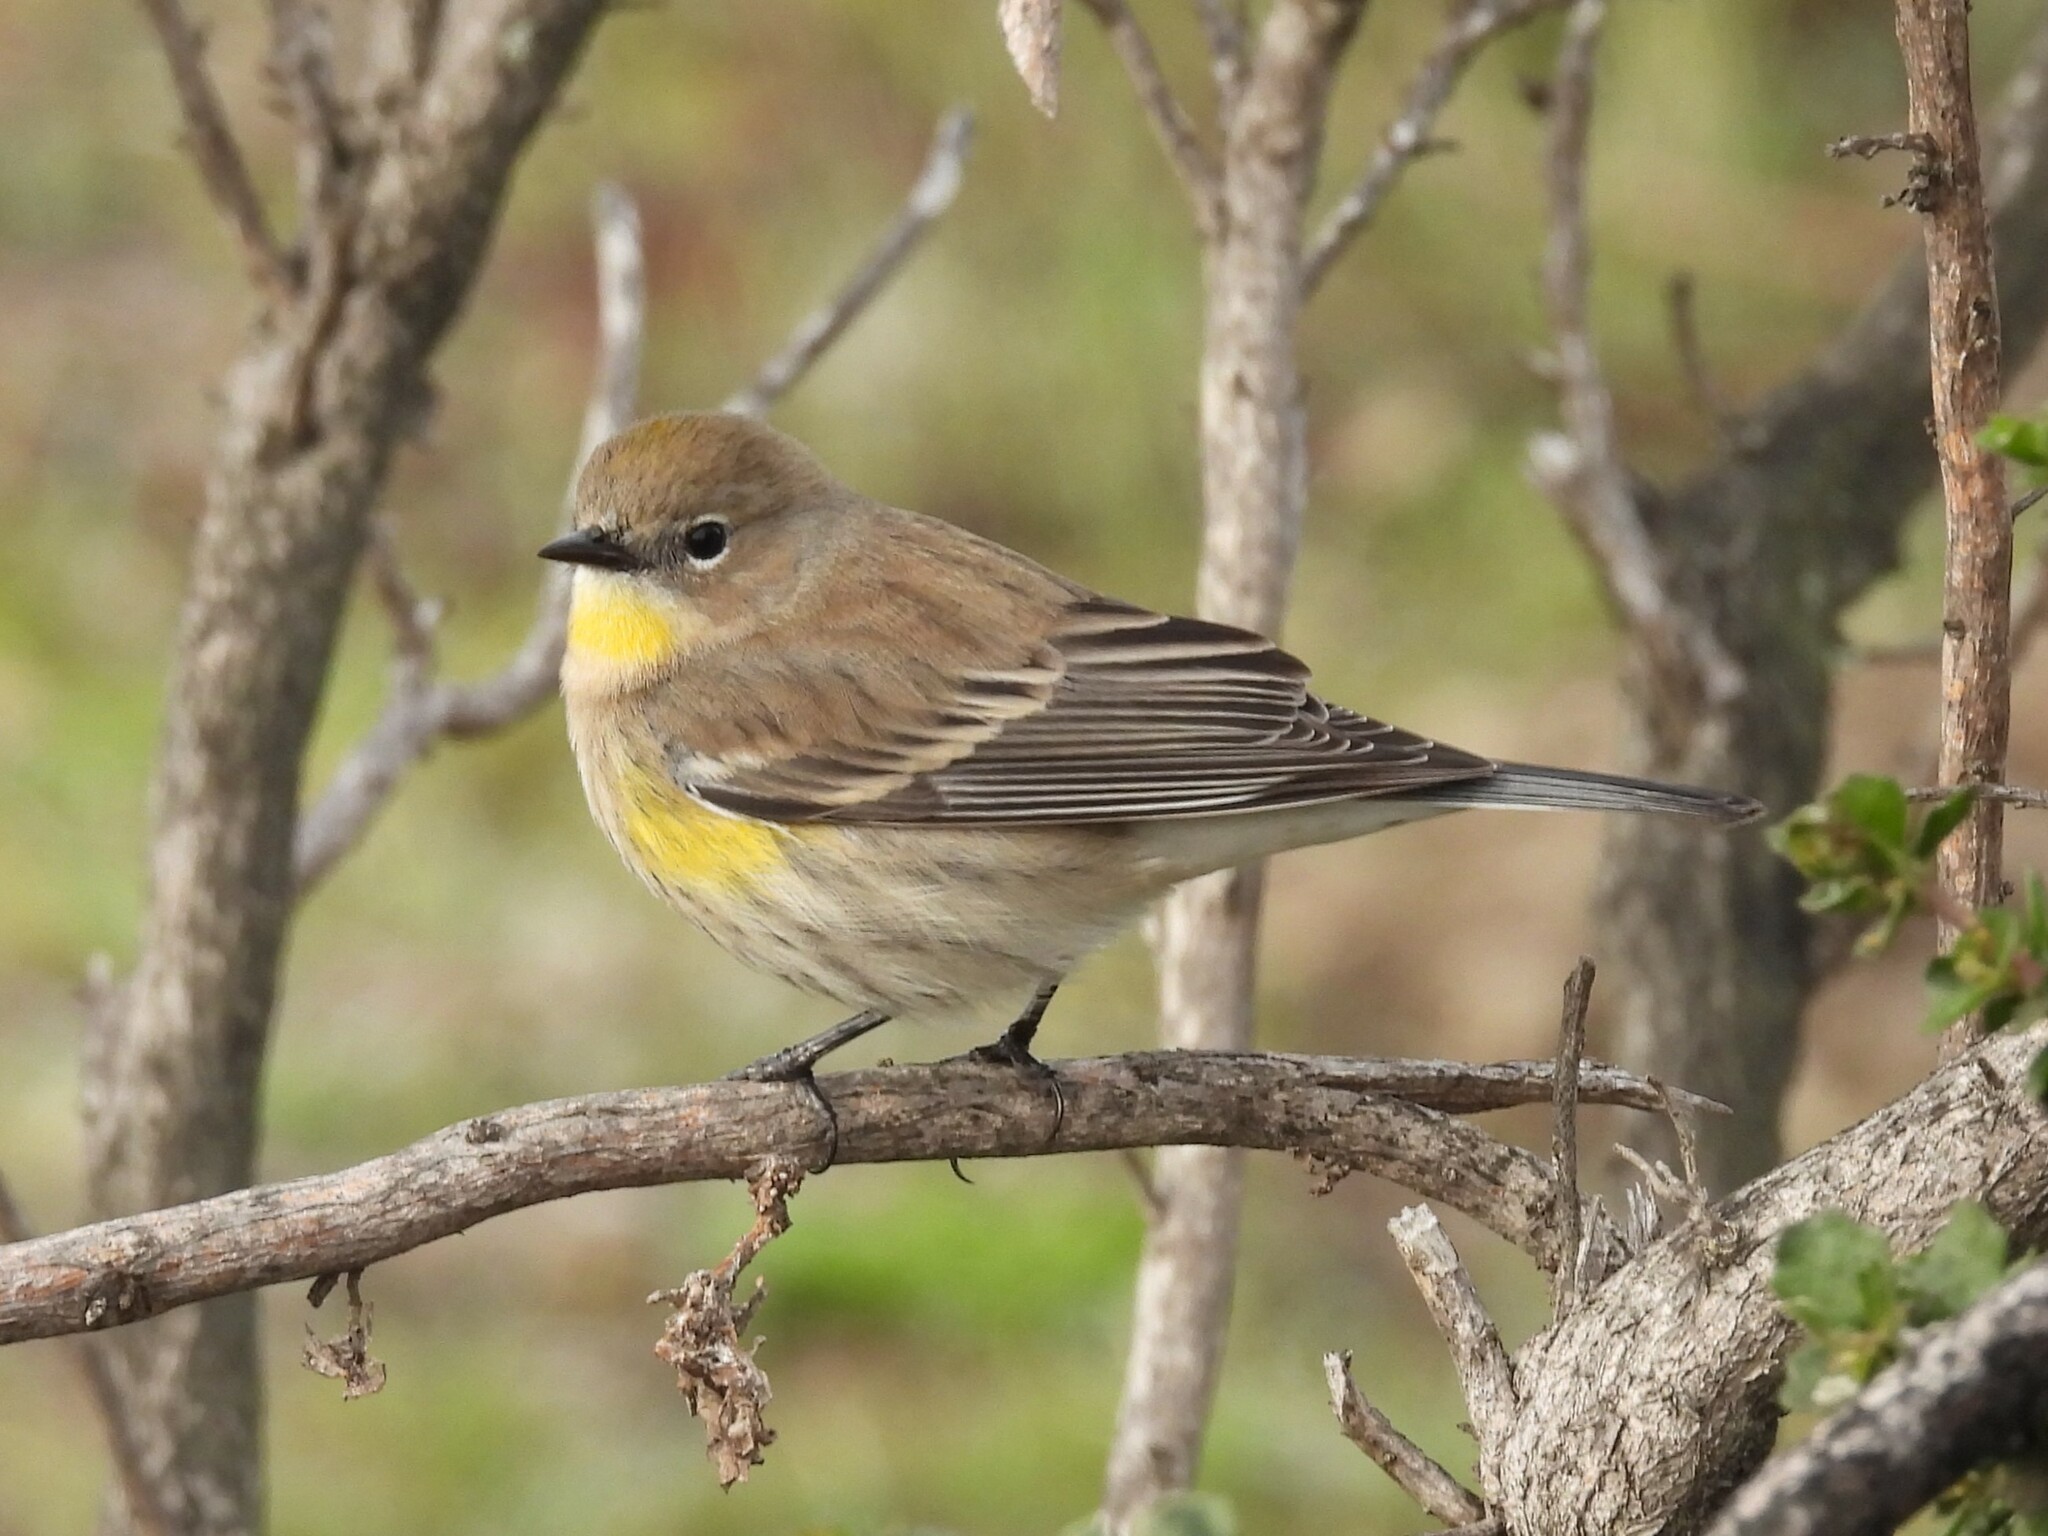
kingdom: Animalia
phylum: Chordata
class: Aves
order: Passeriformes
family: Parulidae
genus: Setophaga
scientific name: Setophaga coronata
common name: Myrtle warbler
